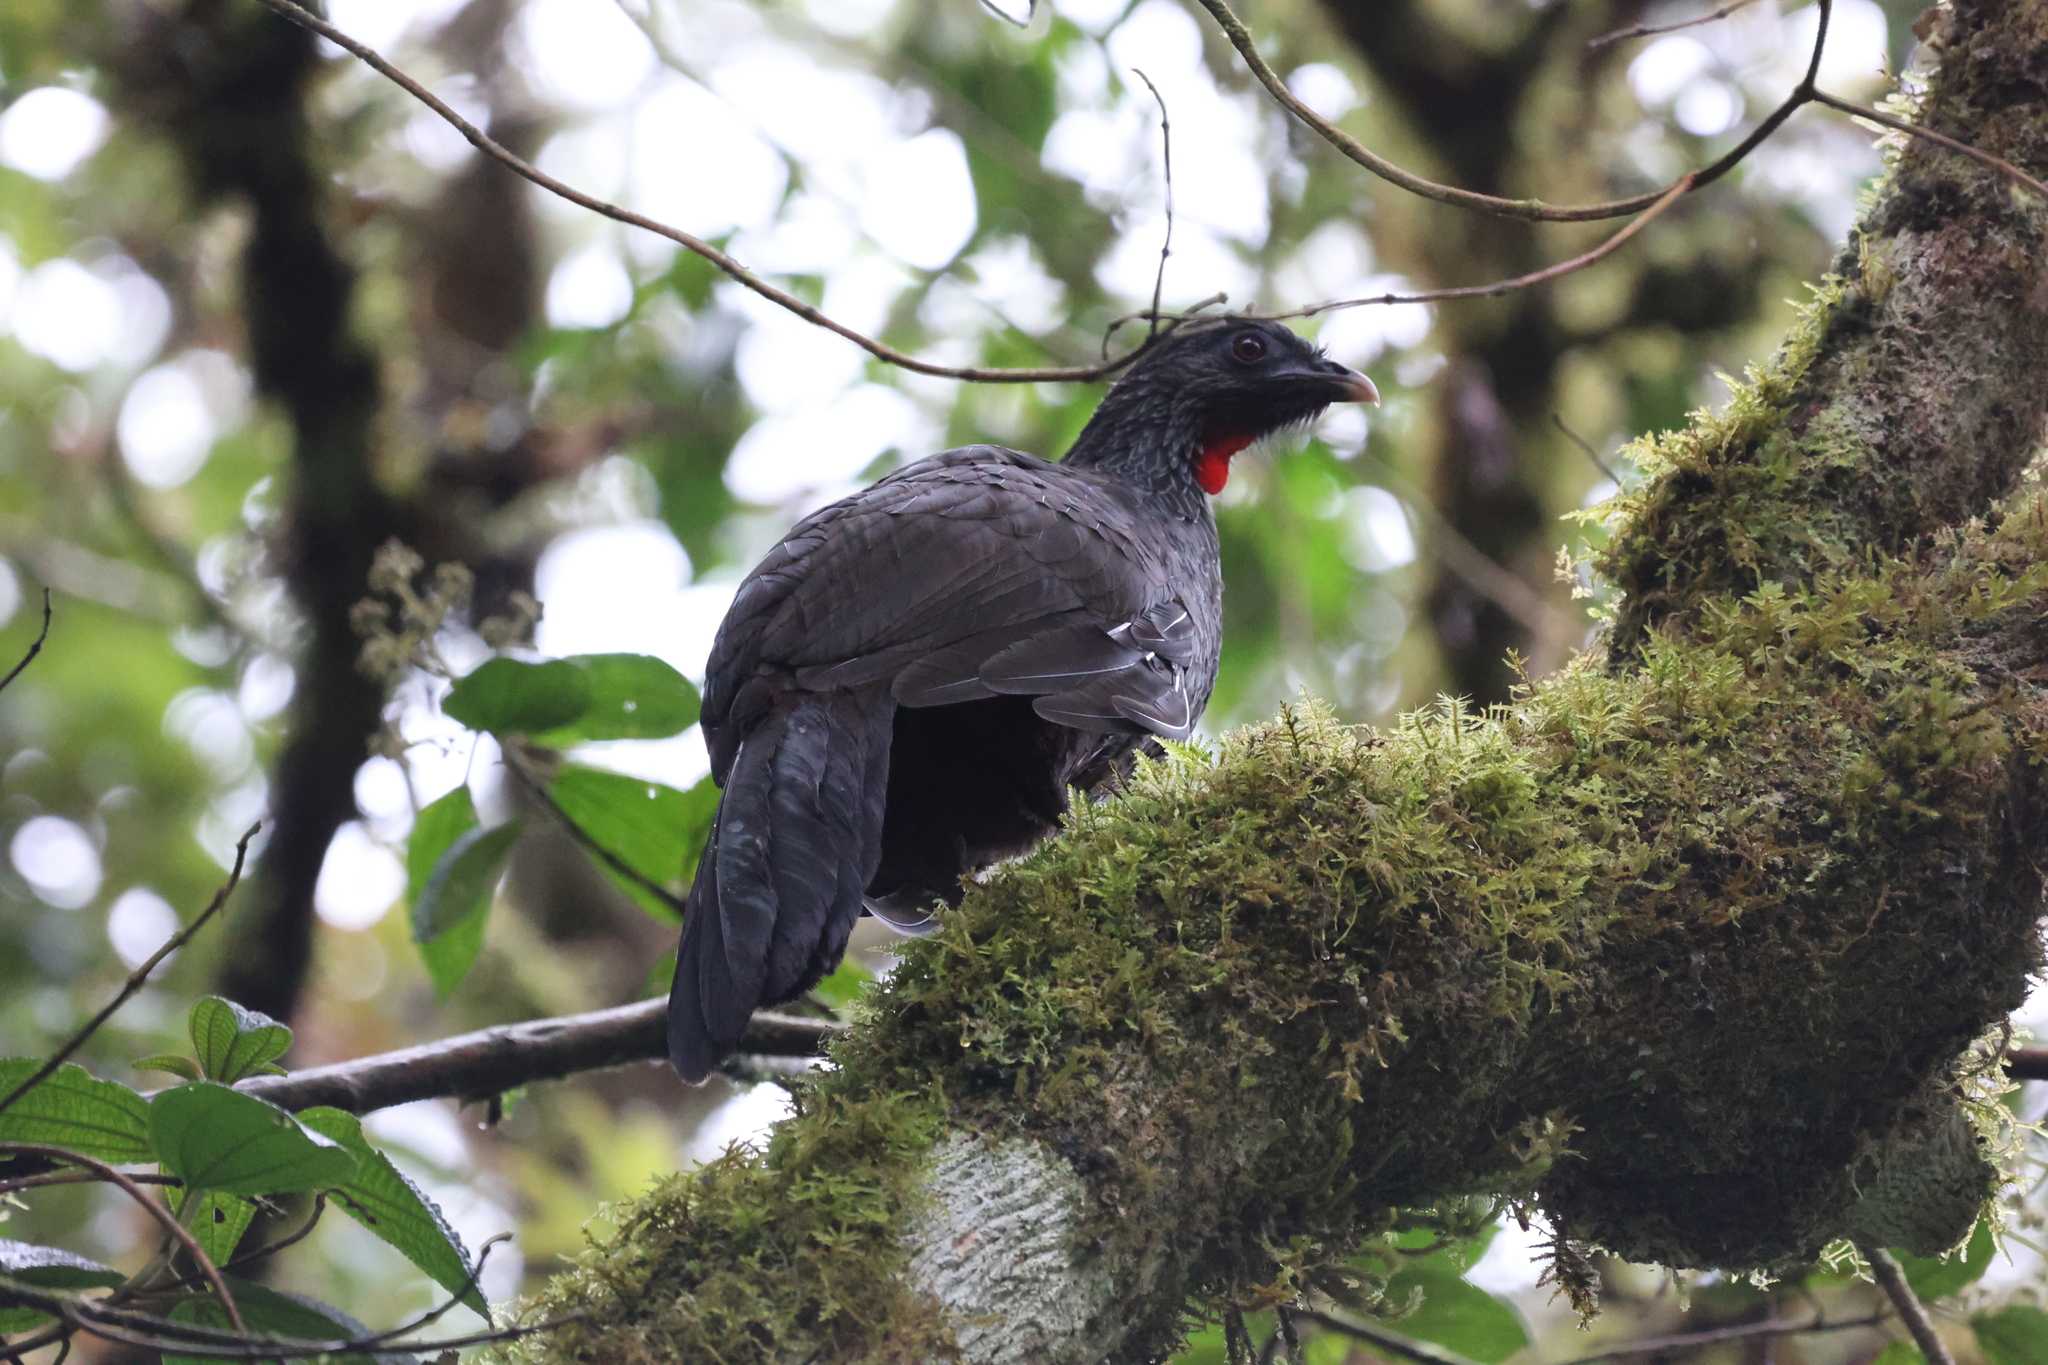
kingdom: Animalia
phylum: Chordata
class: Aves
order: Galliformes
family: Cracidae
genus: Penelope
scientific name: Penelope montagnii
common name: Andean guan
